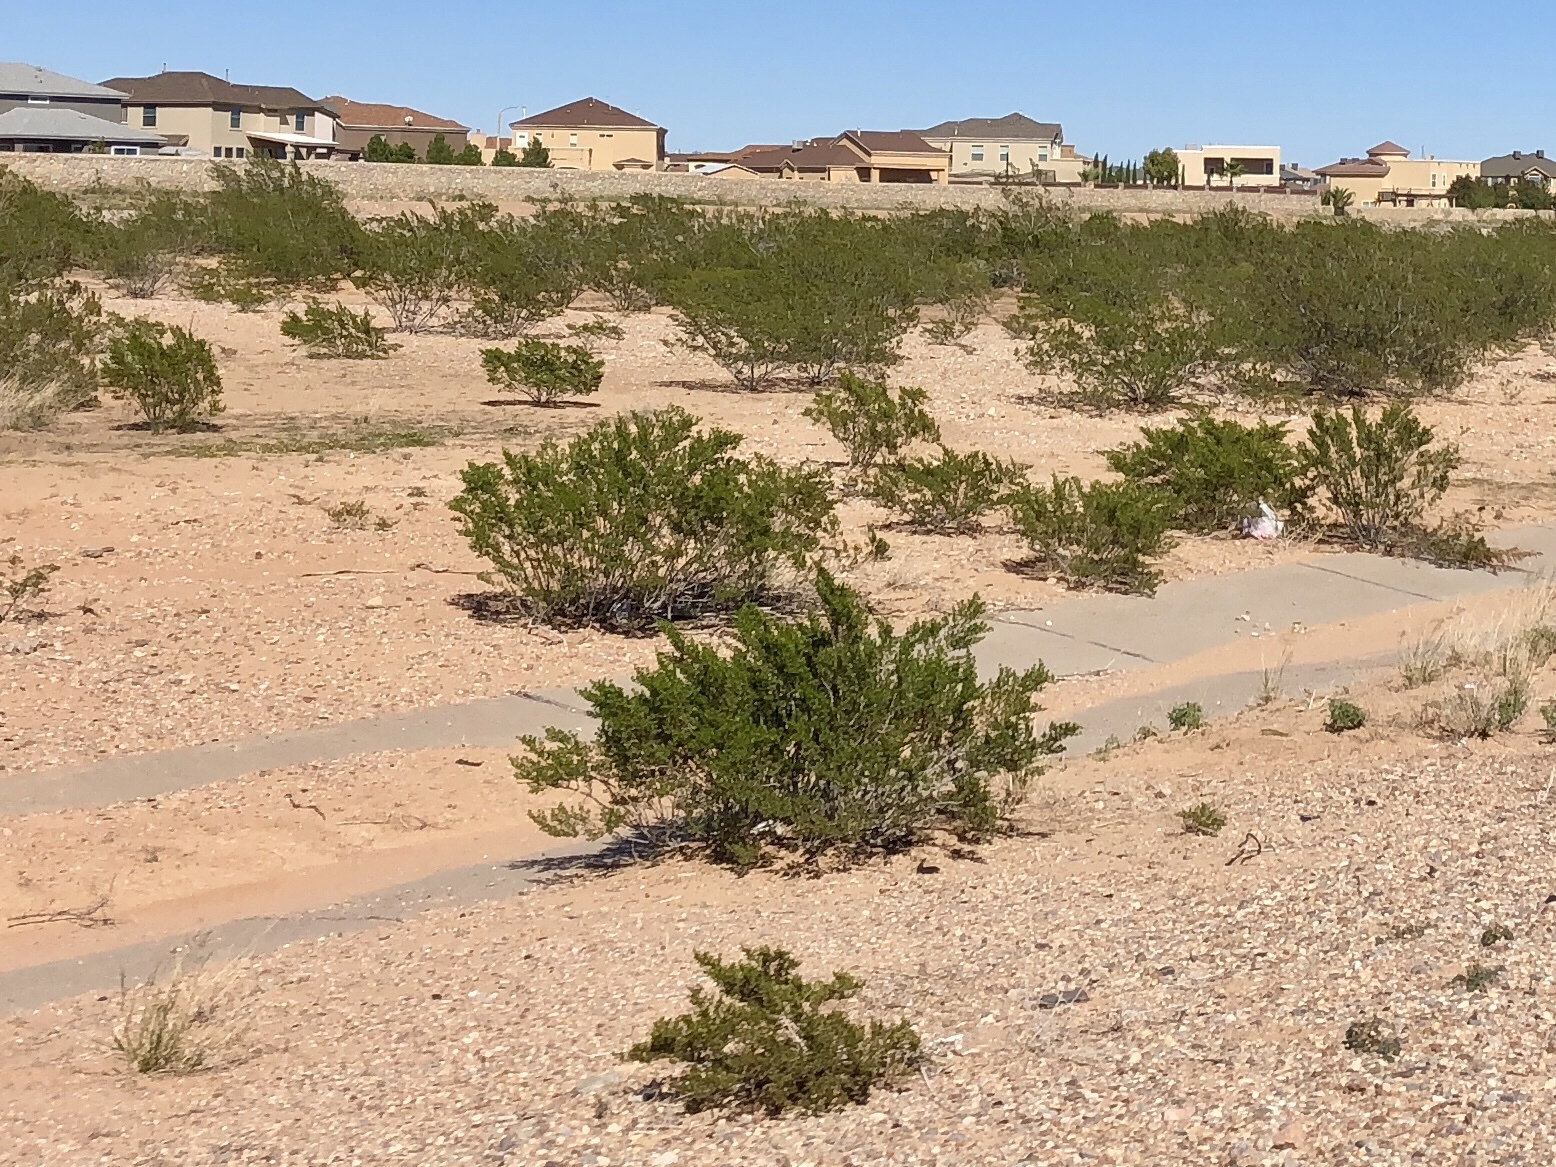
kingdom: Plantae
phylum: Tracheophyta
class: Magnoliopsida
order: Zygophyllales
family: Zygophyllaceae
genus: Larrea
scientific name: Larrea tridentata
